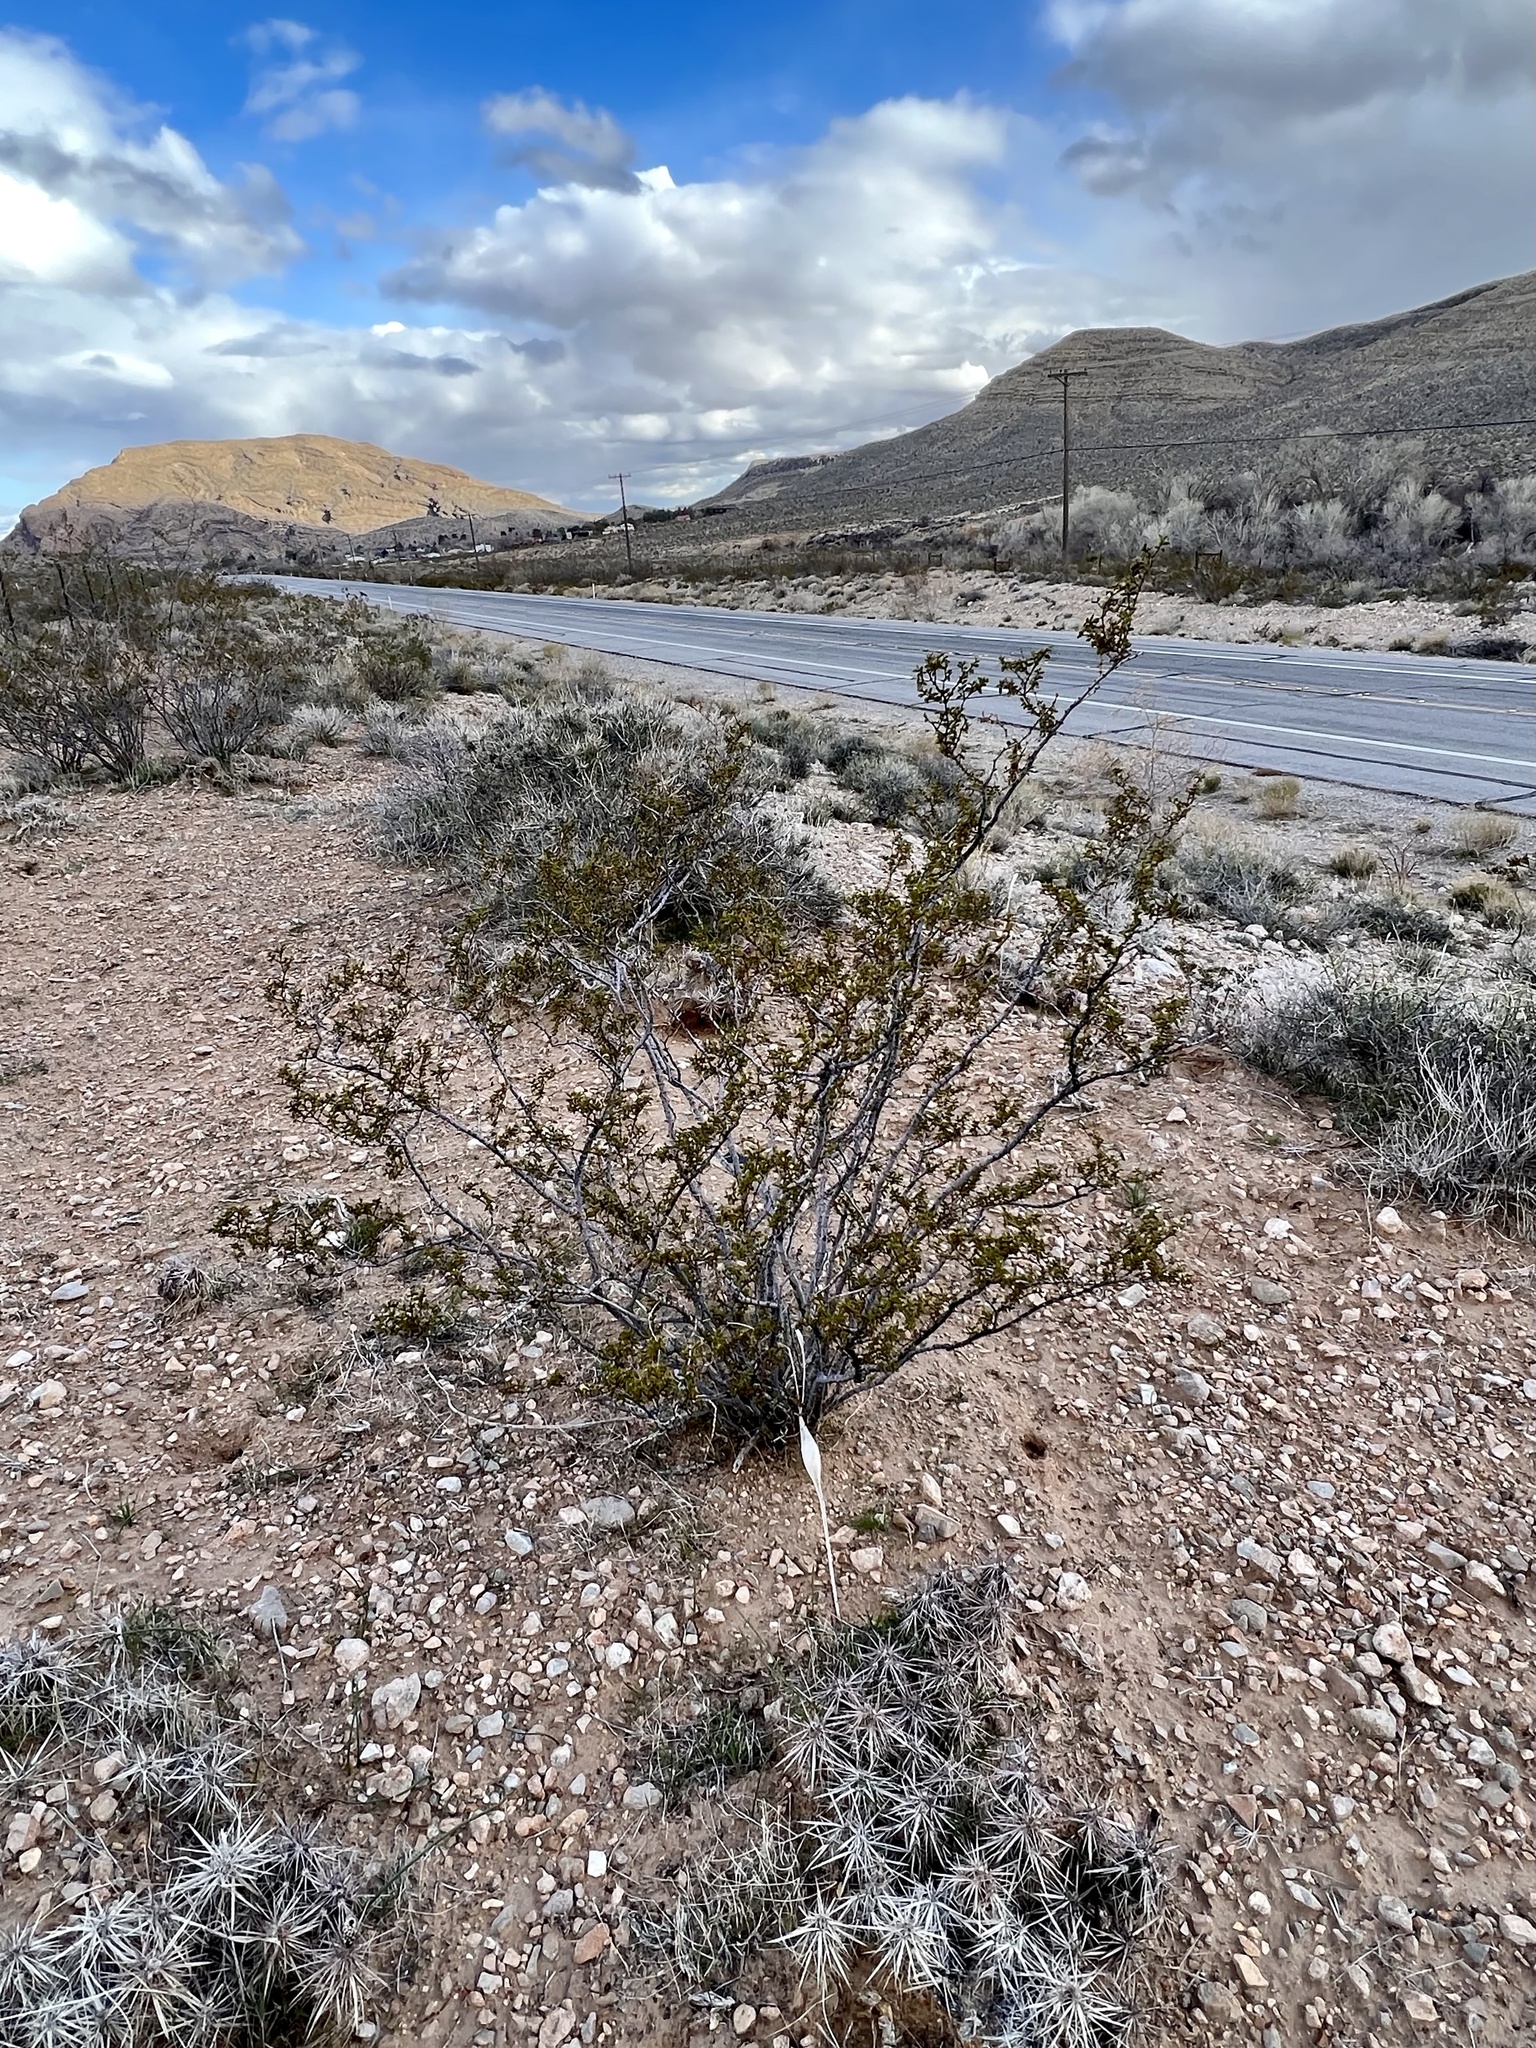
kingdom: Plantae
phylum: Tracheophyta
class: Magnoliopsida
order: Zygophyllales
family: Zygophyllaceae
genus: Larrea
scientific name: Larrea tridentata
